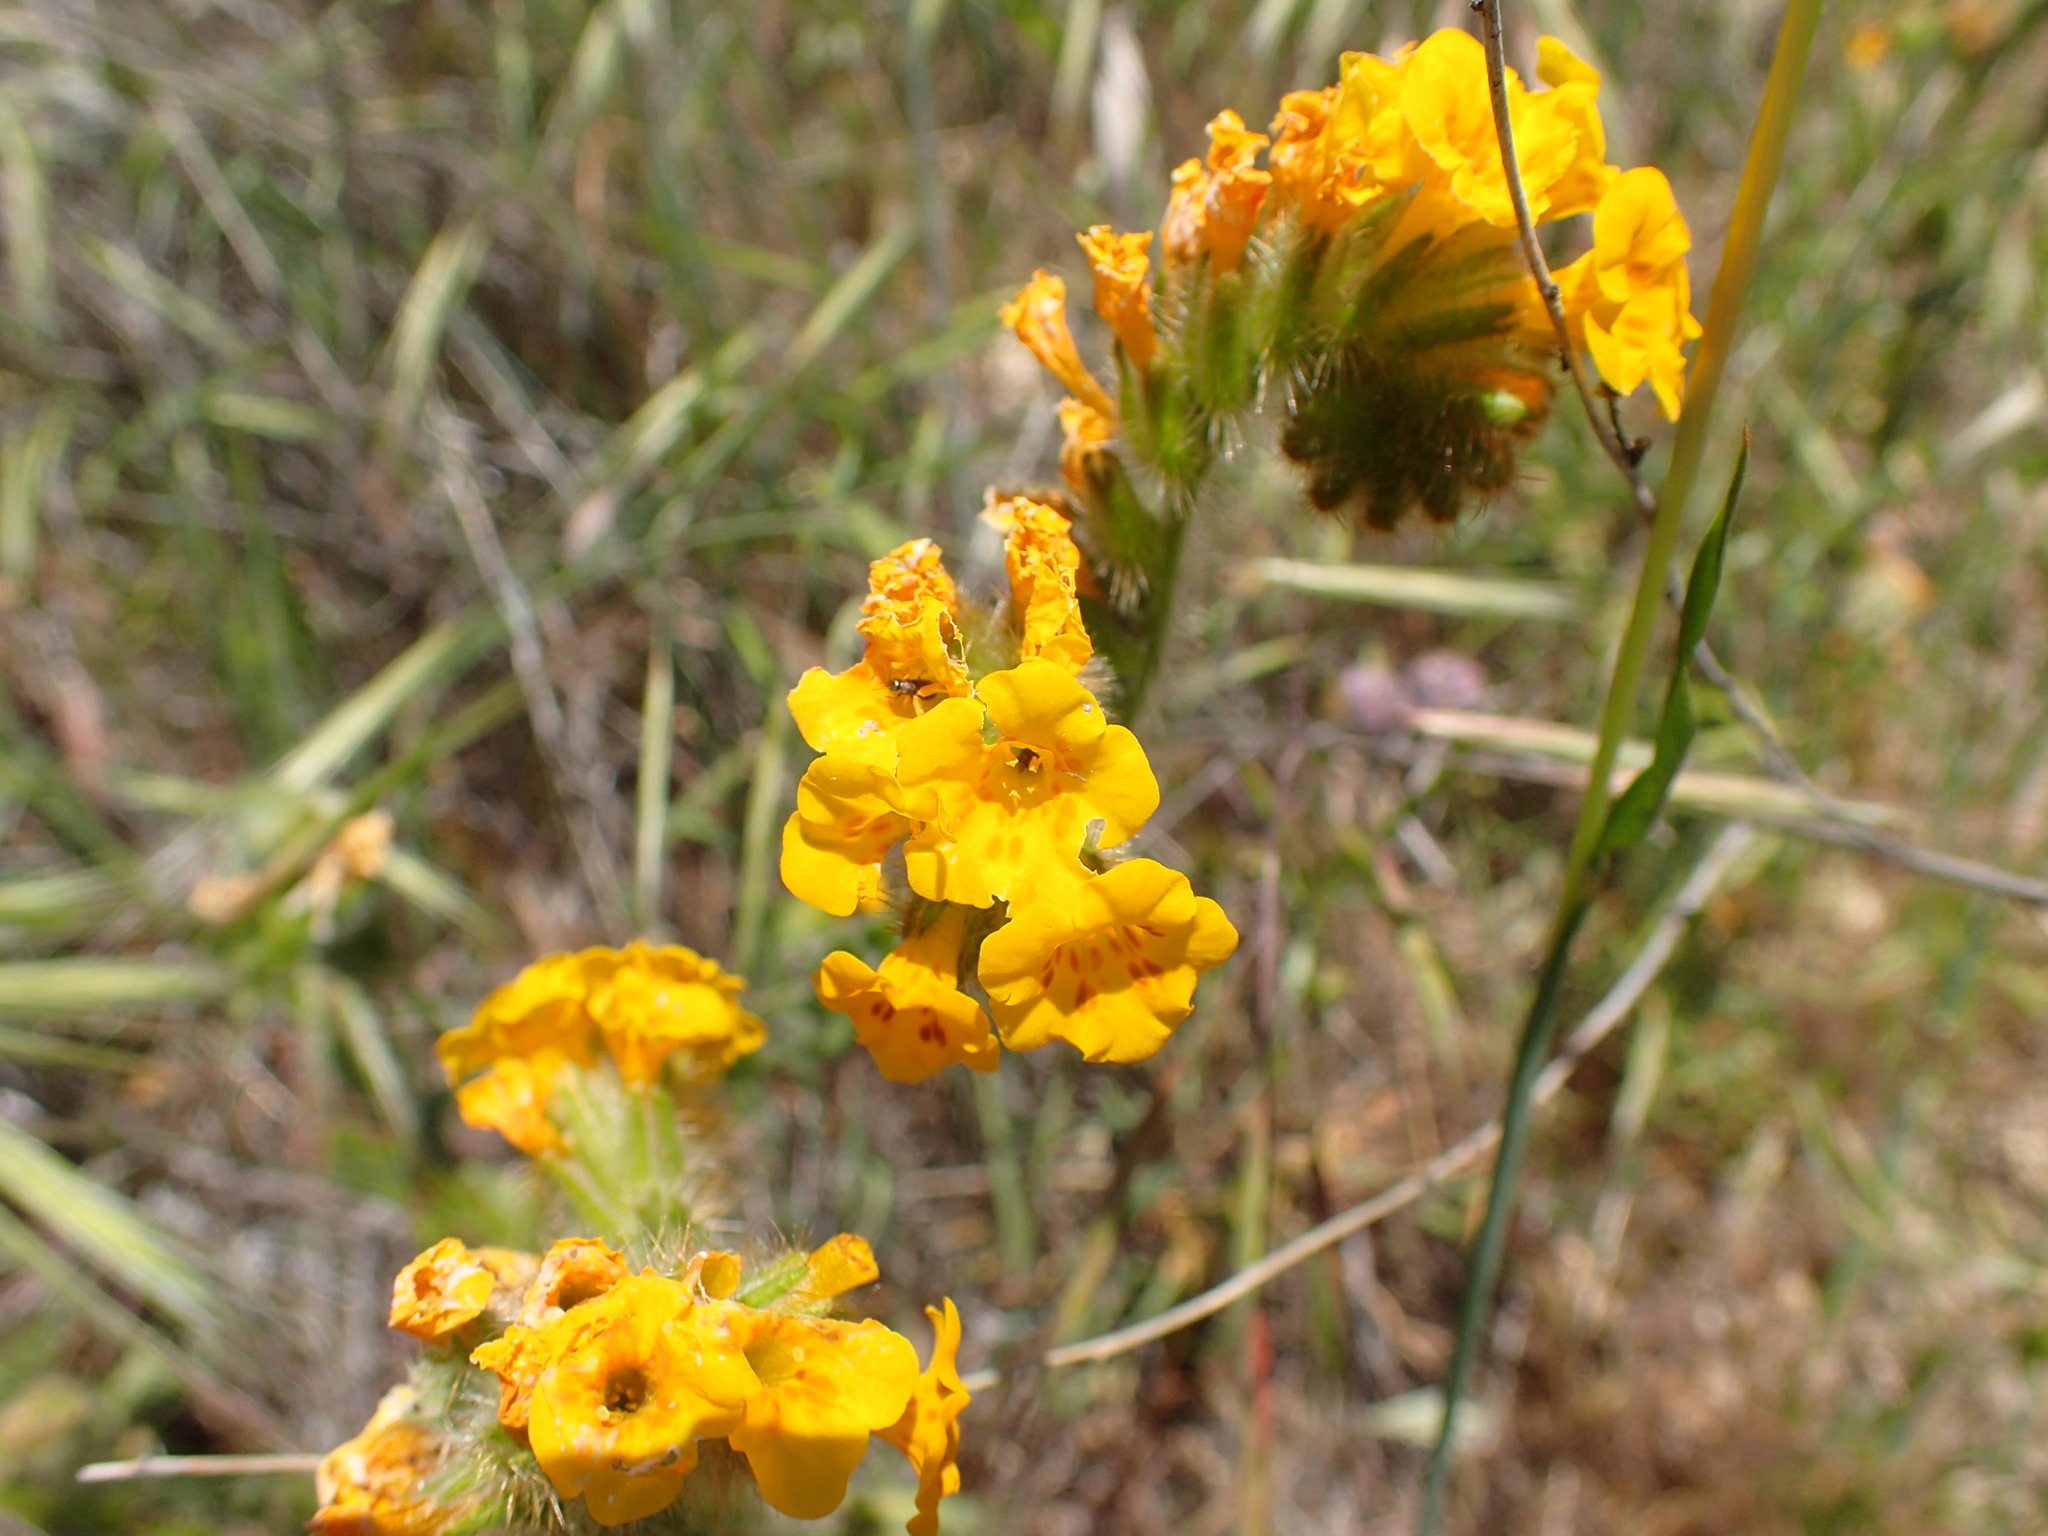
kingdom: Plantae
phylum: Tracheophyta
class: Magnoliopsida
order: Boraginales
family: Boraginaceae
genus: Amsinckia
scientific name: Amsinckia douglasiana
